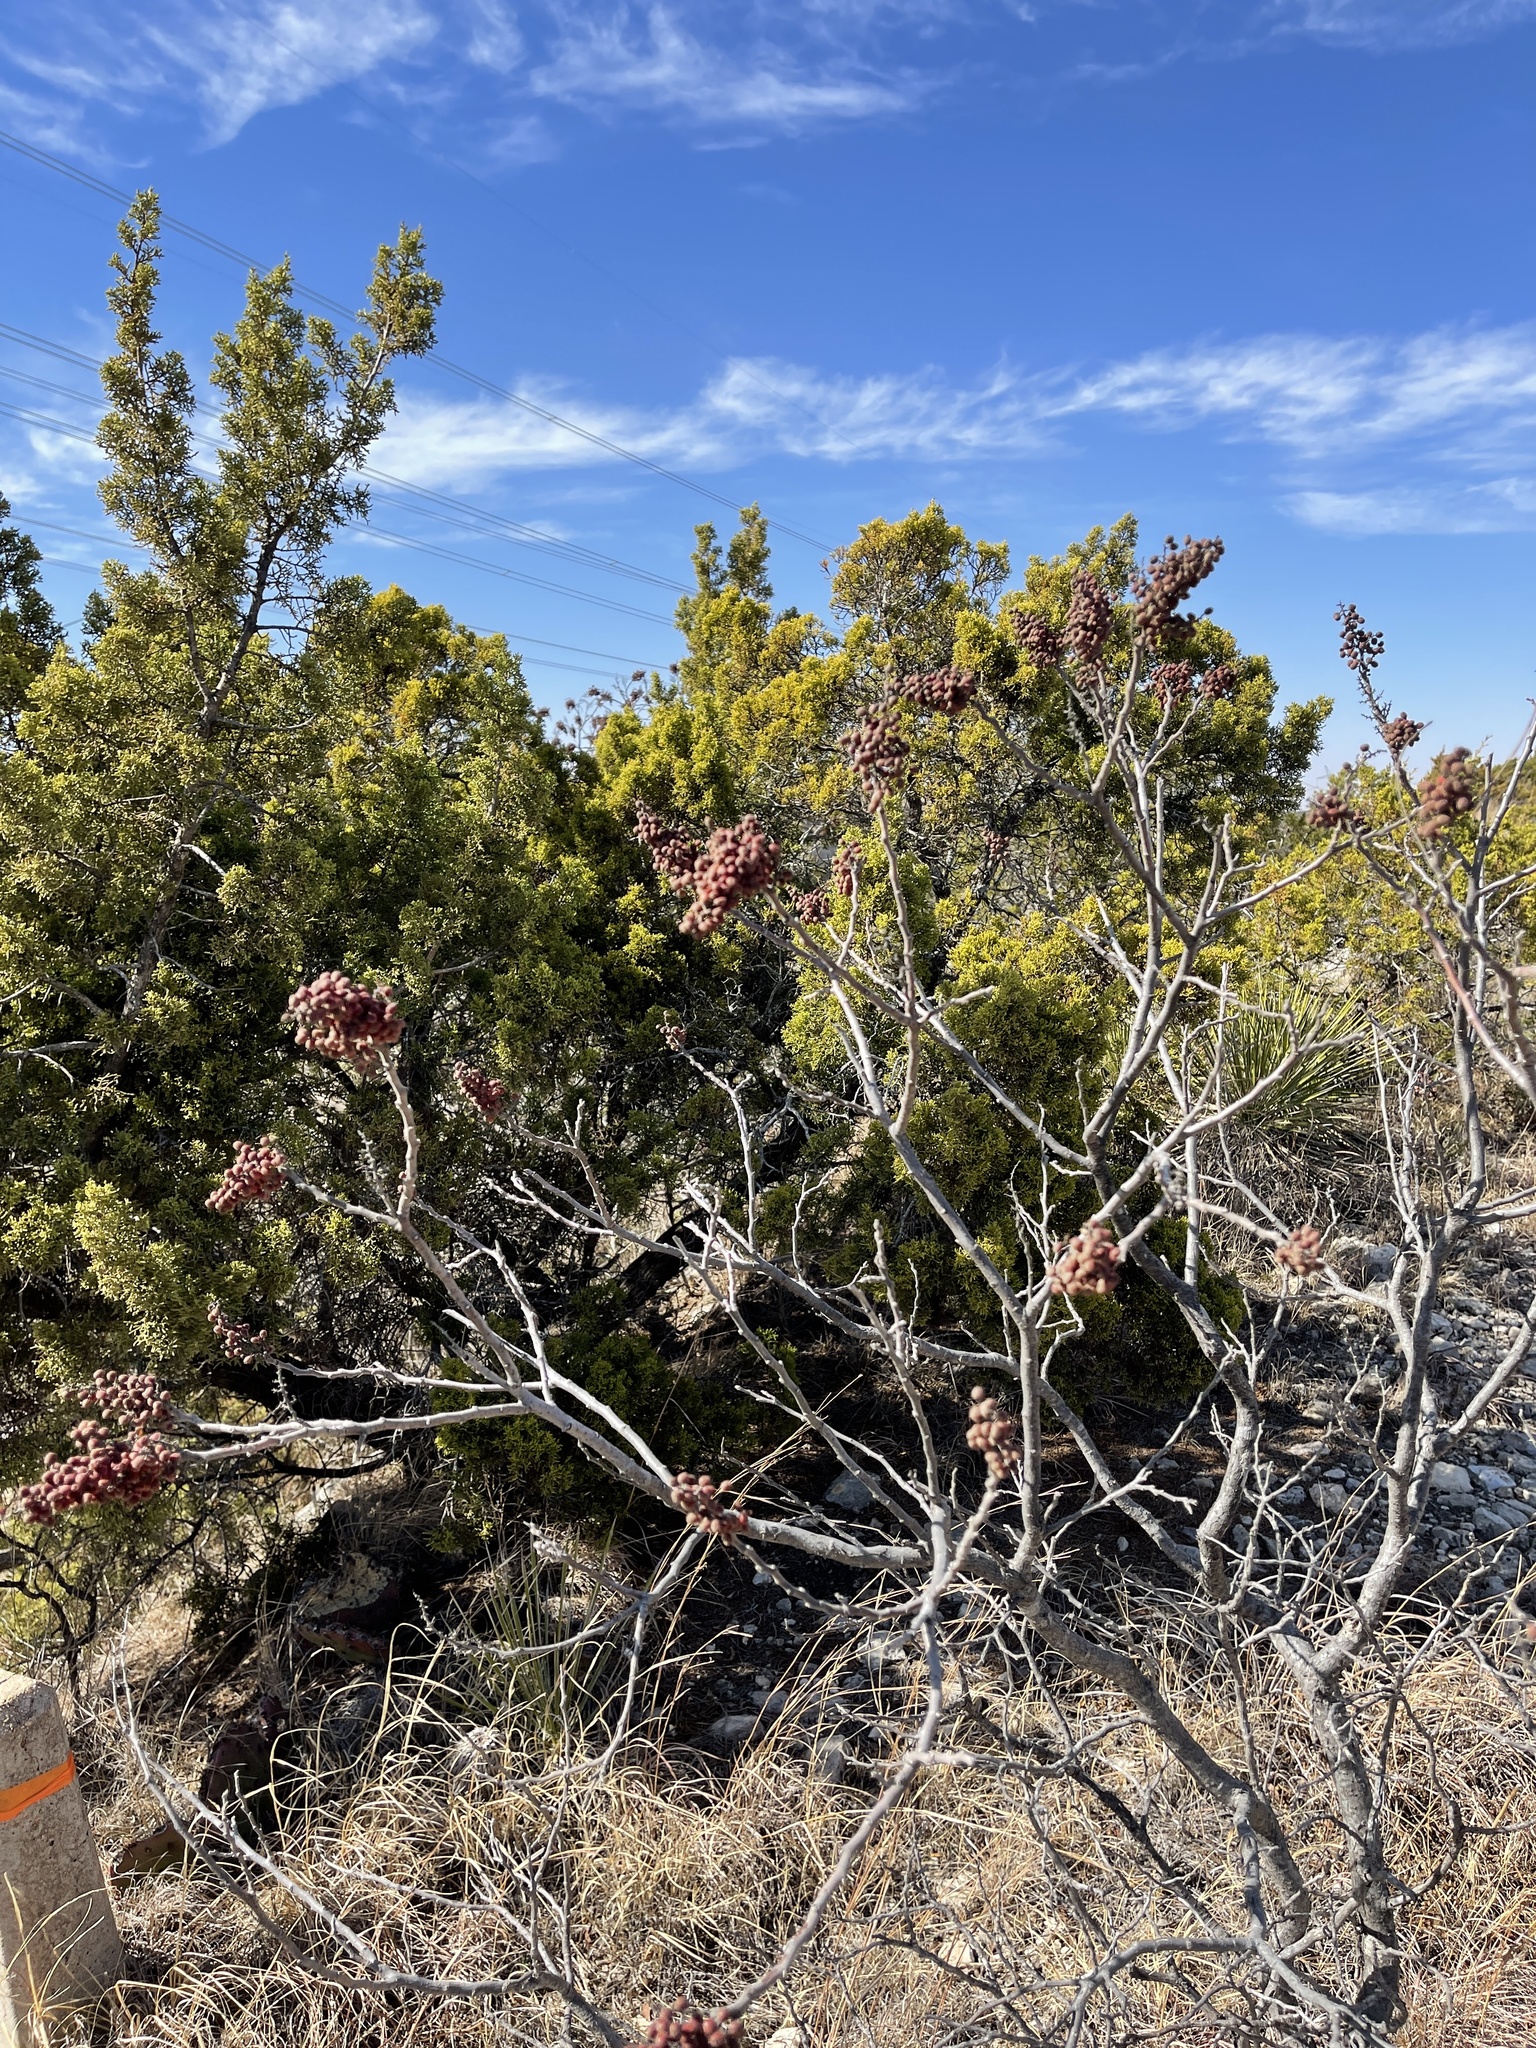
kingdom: Plantae
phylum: Tracheophyta
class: Magnoliopsida
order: Sapindales
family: Anacardiaceae
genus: Rhus
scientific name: Rhus lanceolata
